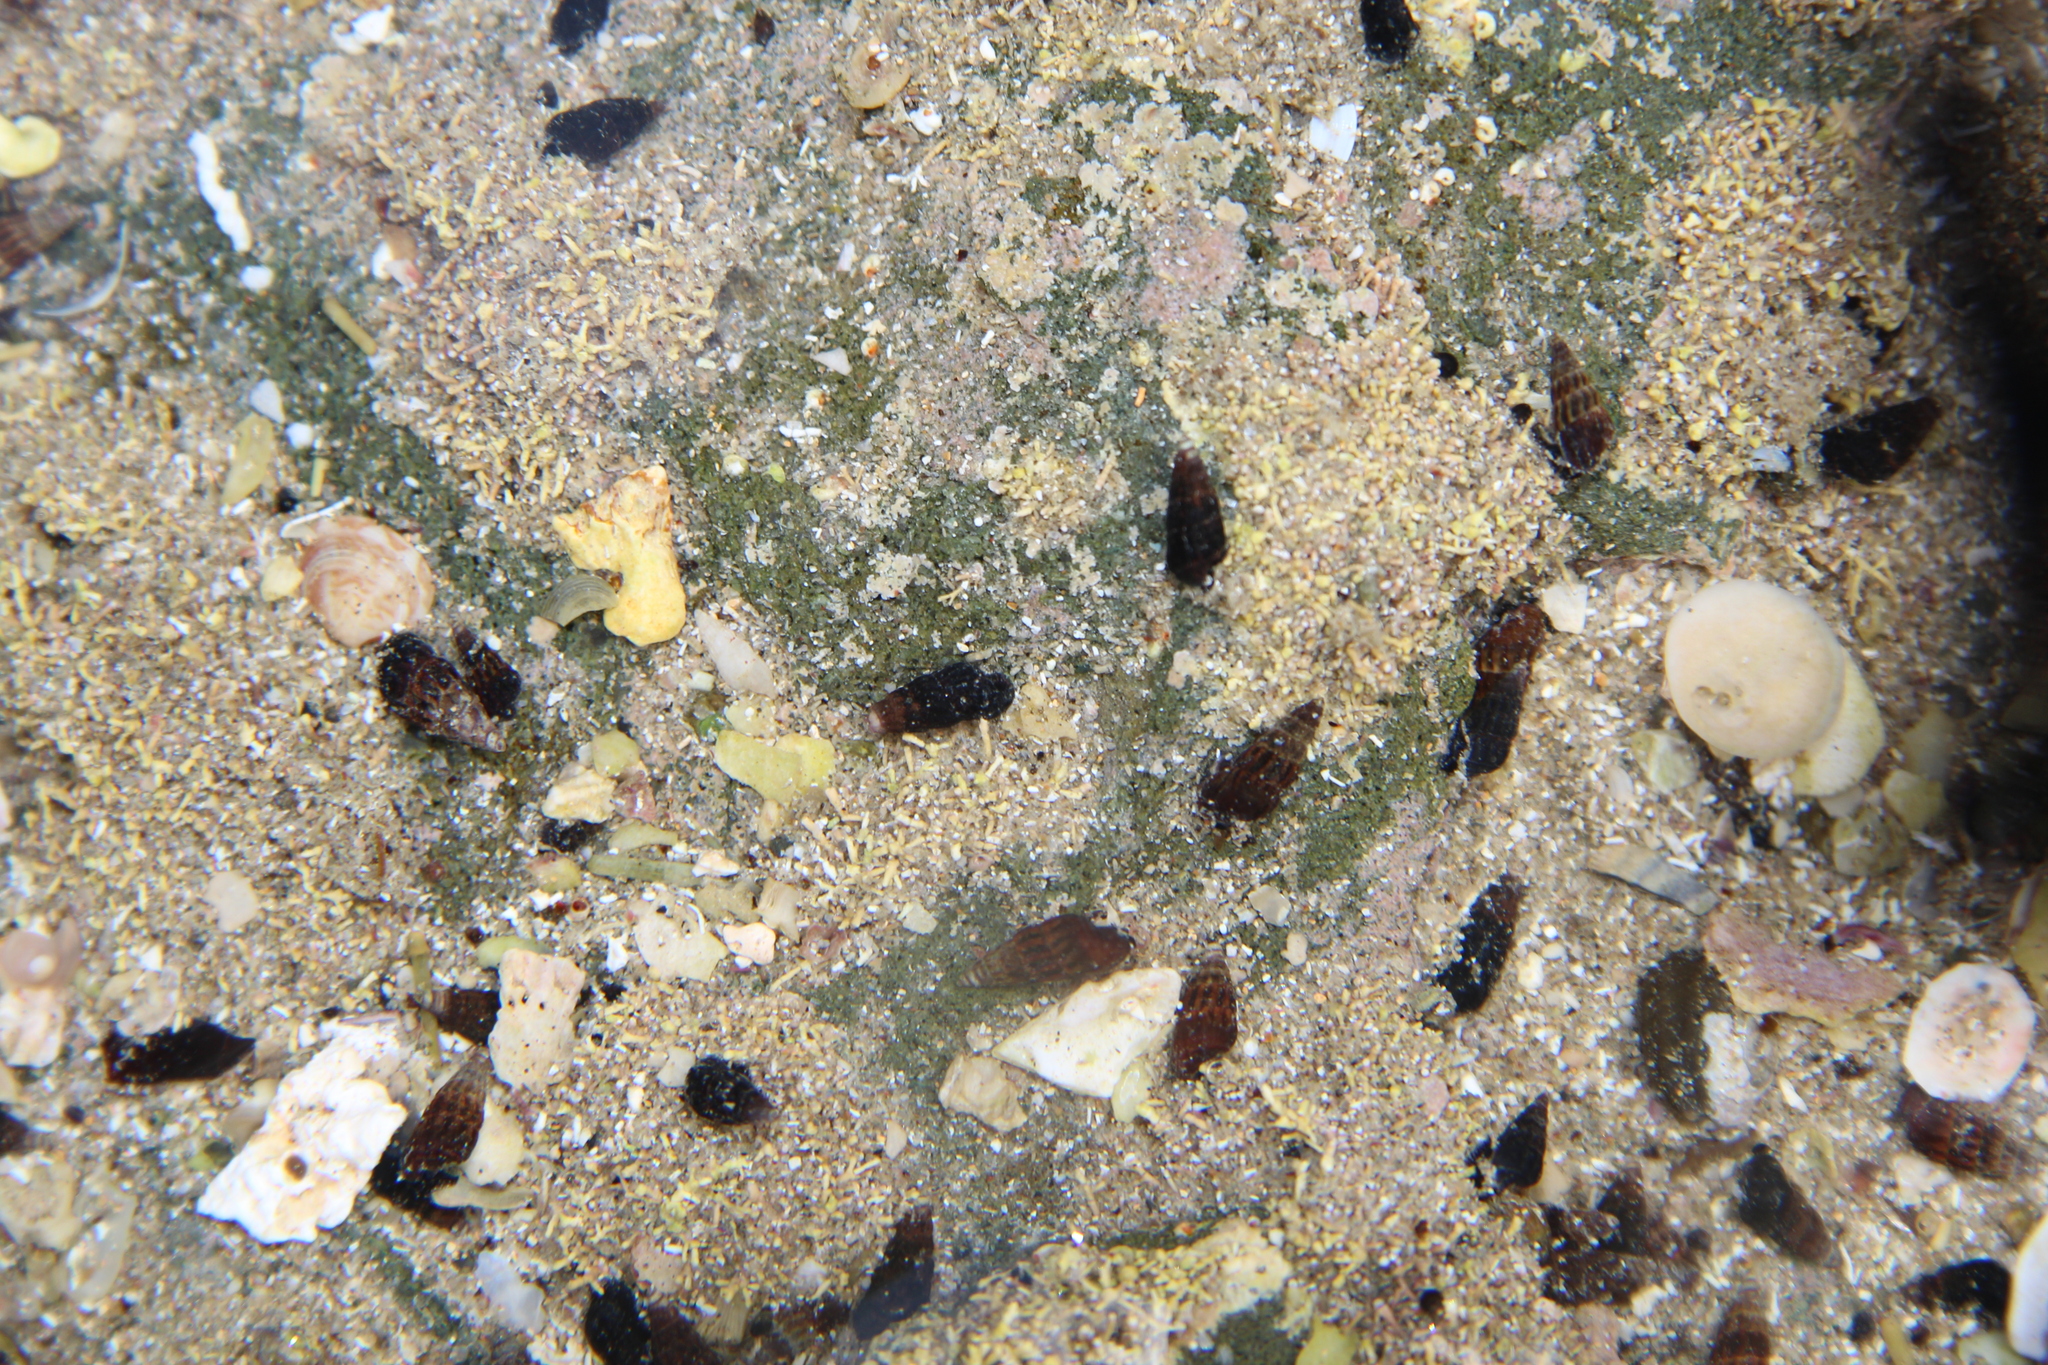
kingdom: Animalia
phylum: Mollusca
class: Gastropoda
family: Batillariidae
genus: Zeacumantus
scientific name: Zeacumantus subcarinatus
